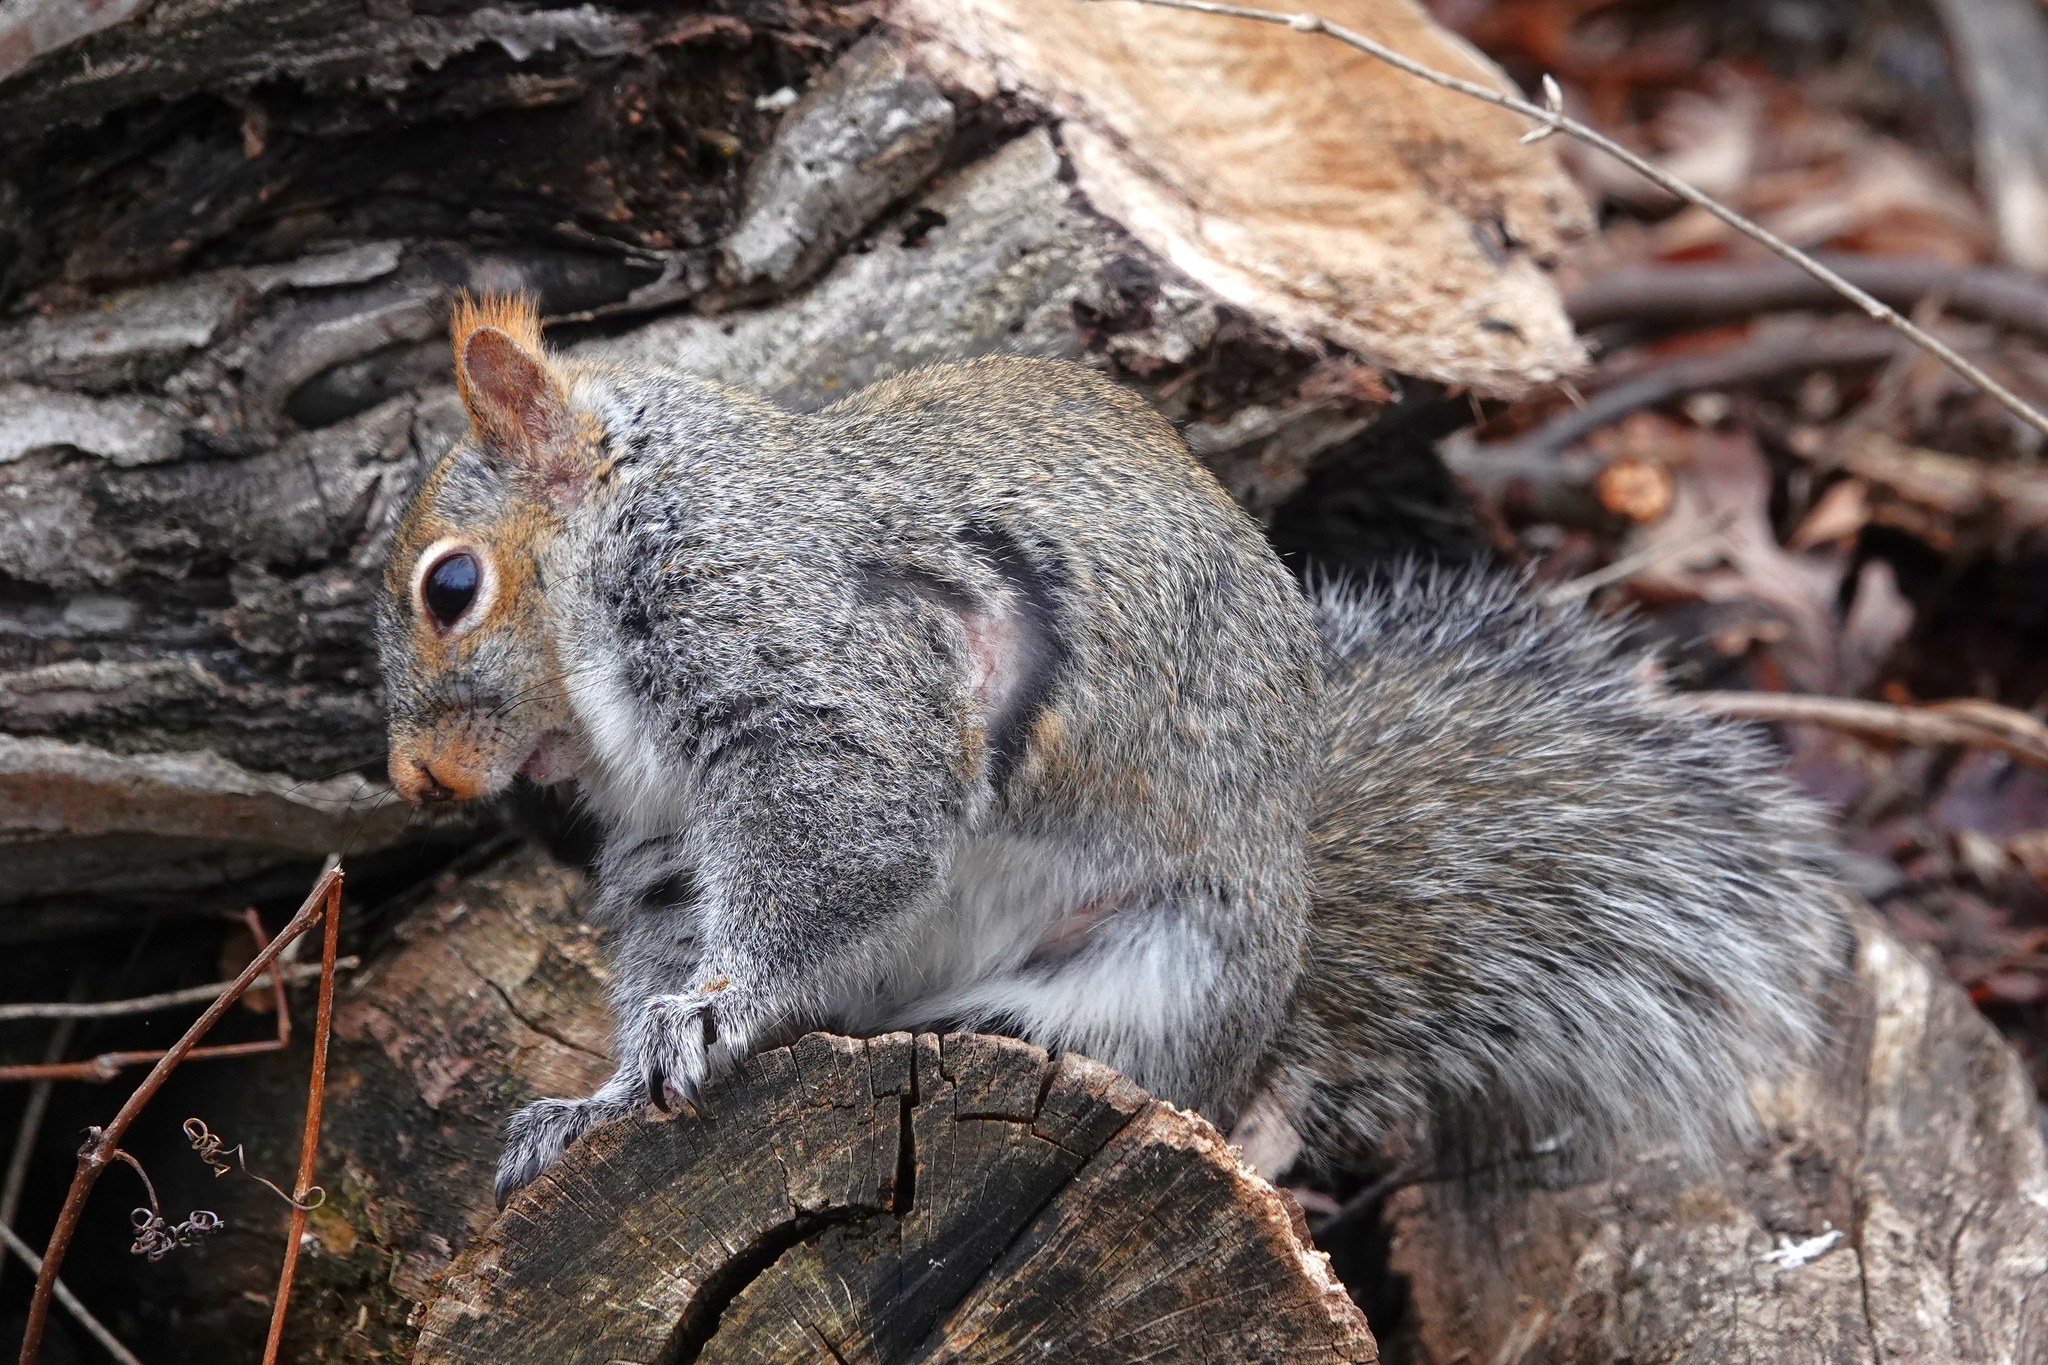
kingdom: Animalia
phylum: Chordata
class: Mammalia
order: Rodentia
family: Sciuridae
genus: Sciurus
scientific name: Sciurus carolinensis
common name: Eastern gray squirrel
